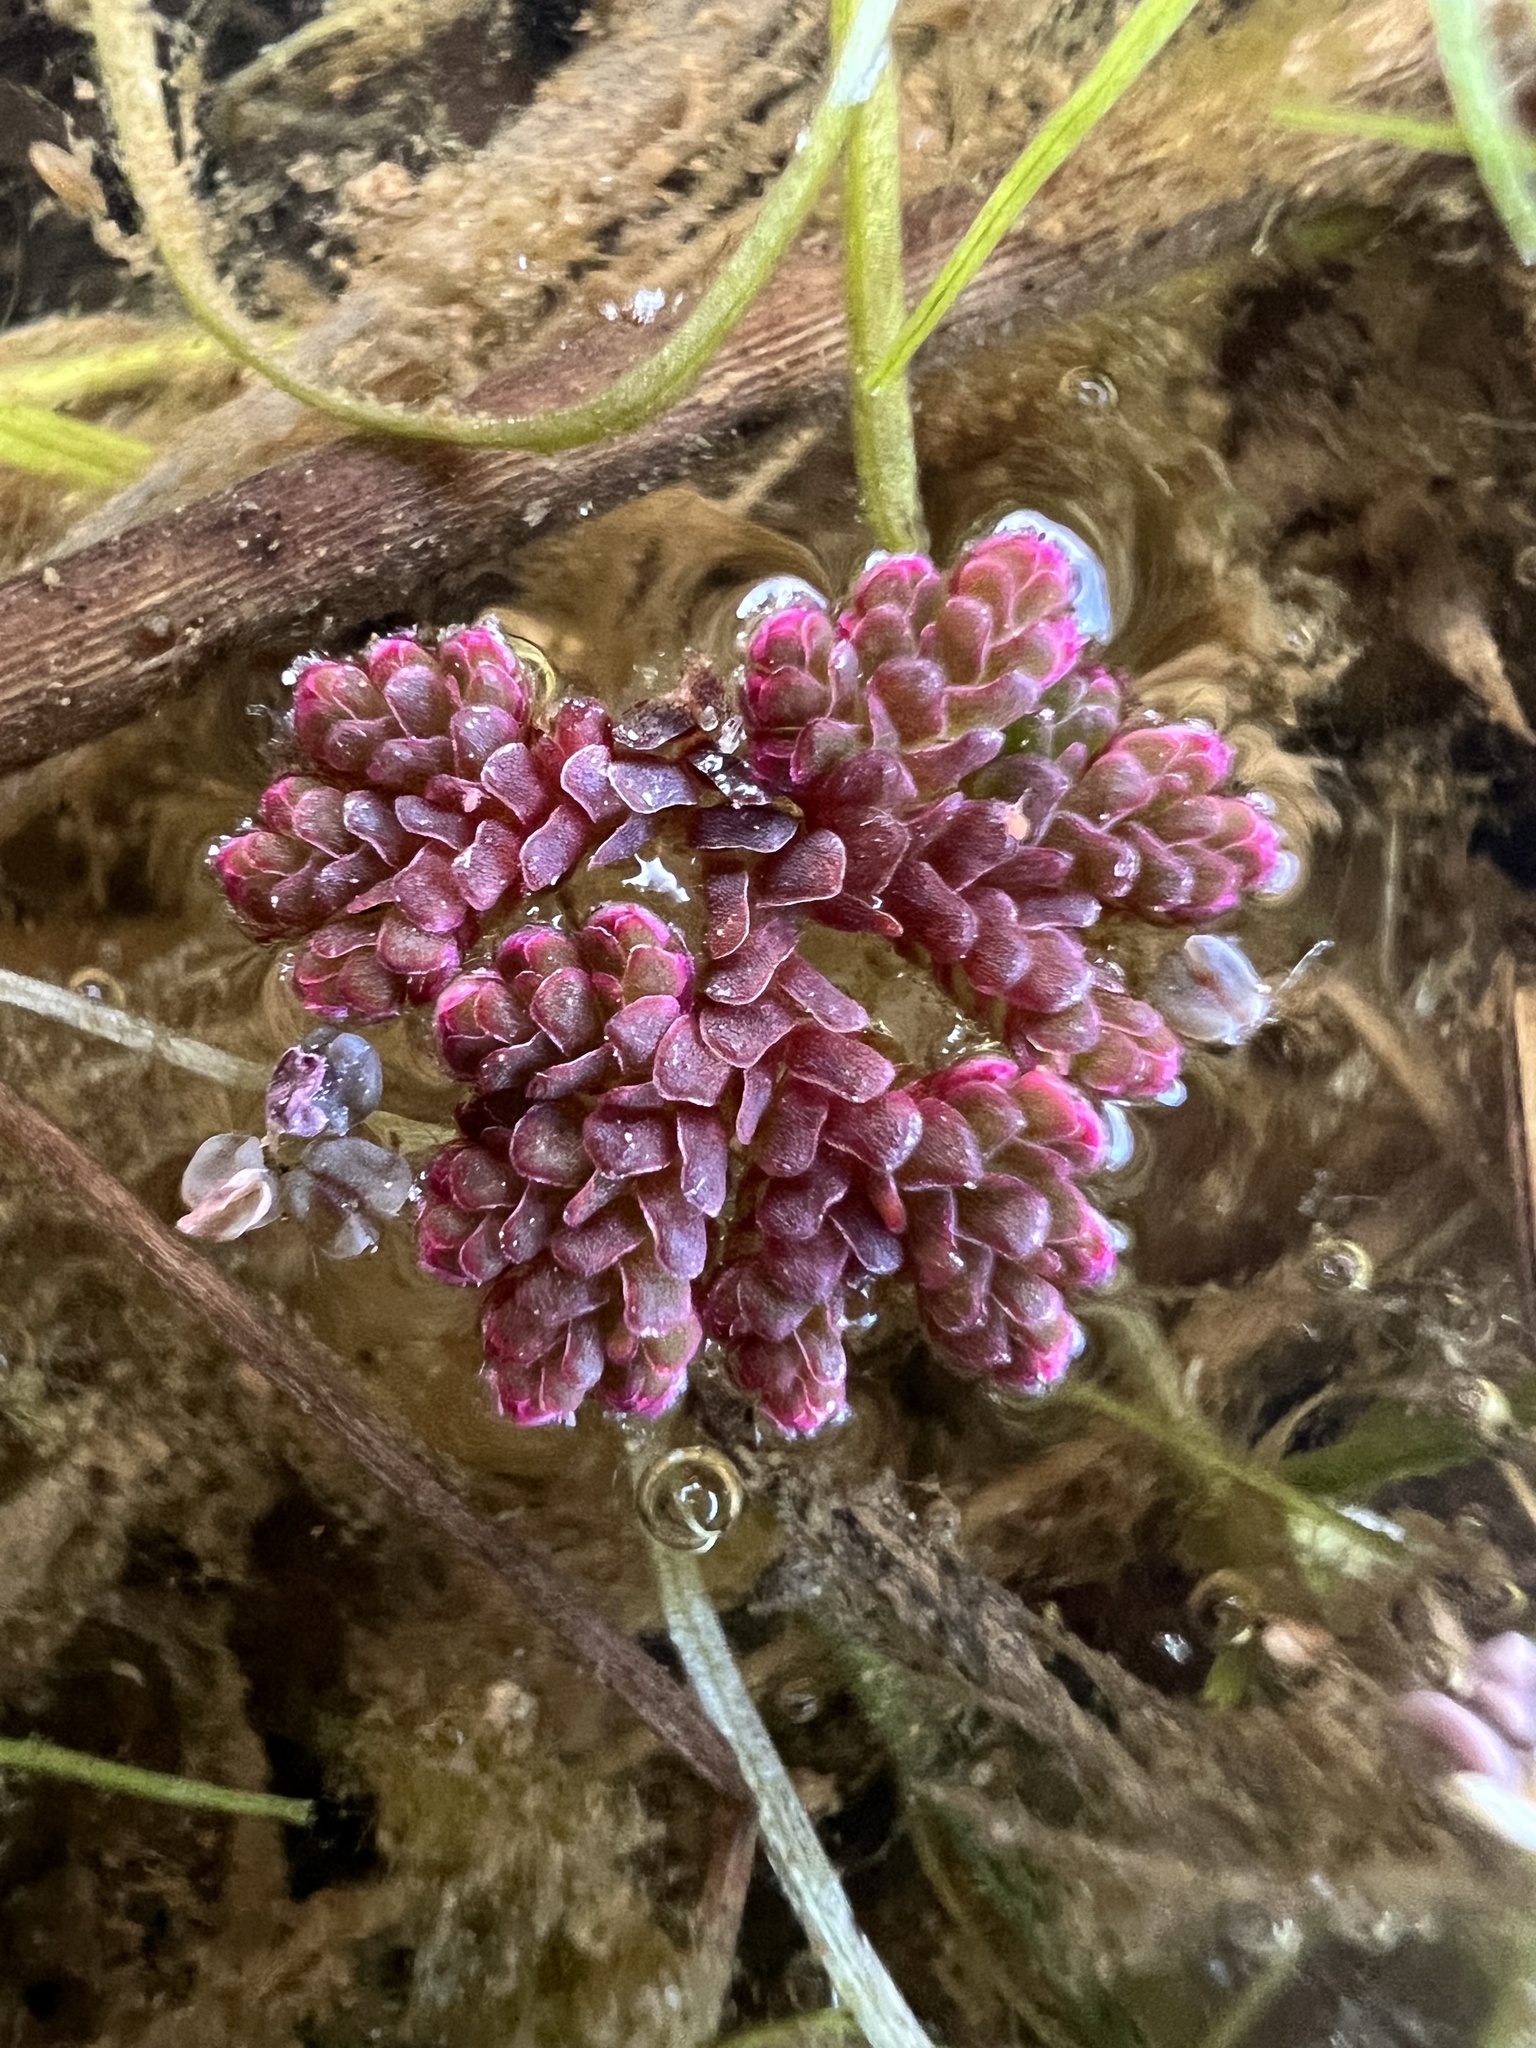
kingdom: Plantae
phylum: Tracheophyta
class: Polypodiopsida
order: Salviniales
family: Salviniaceae
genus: Azolla
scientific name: Azolla caroliniana
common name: Carolina mosquitofern
